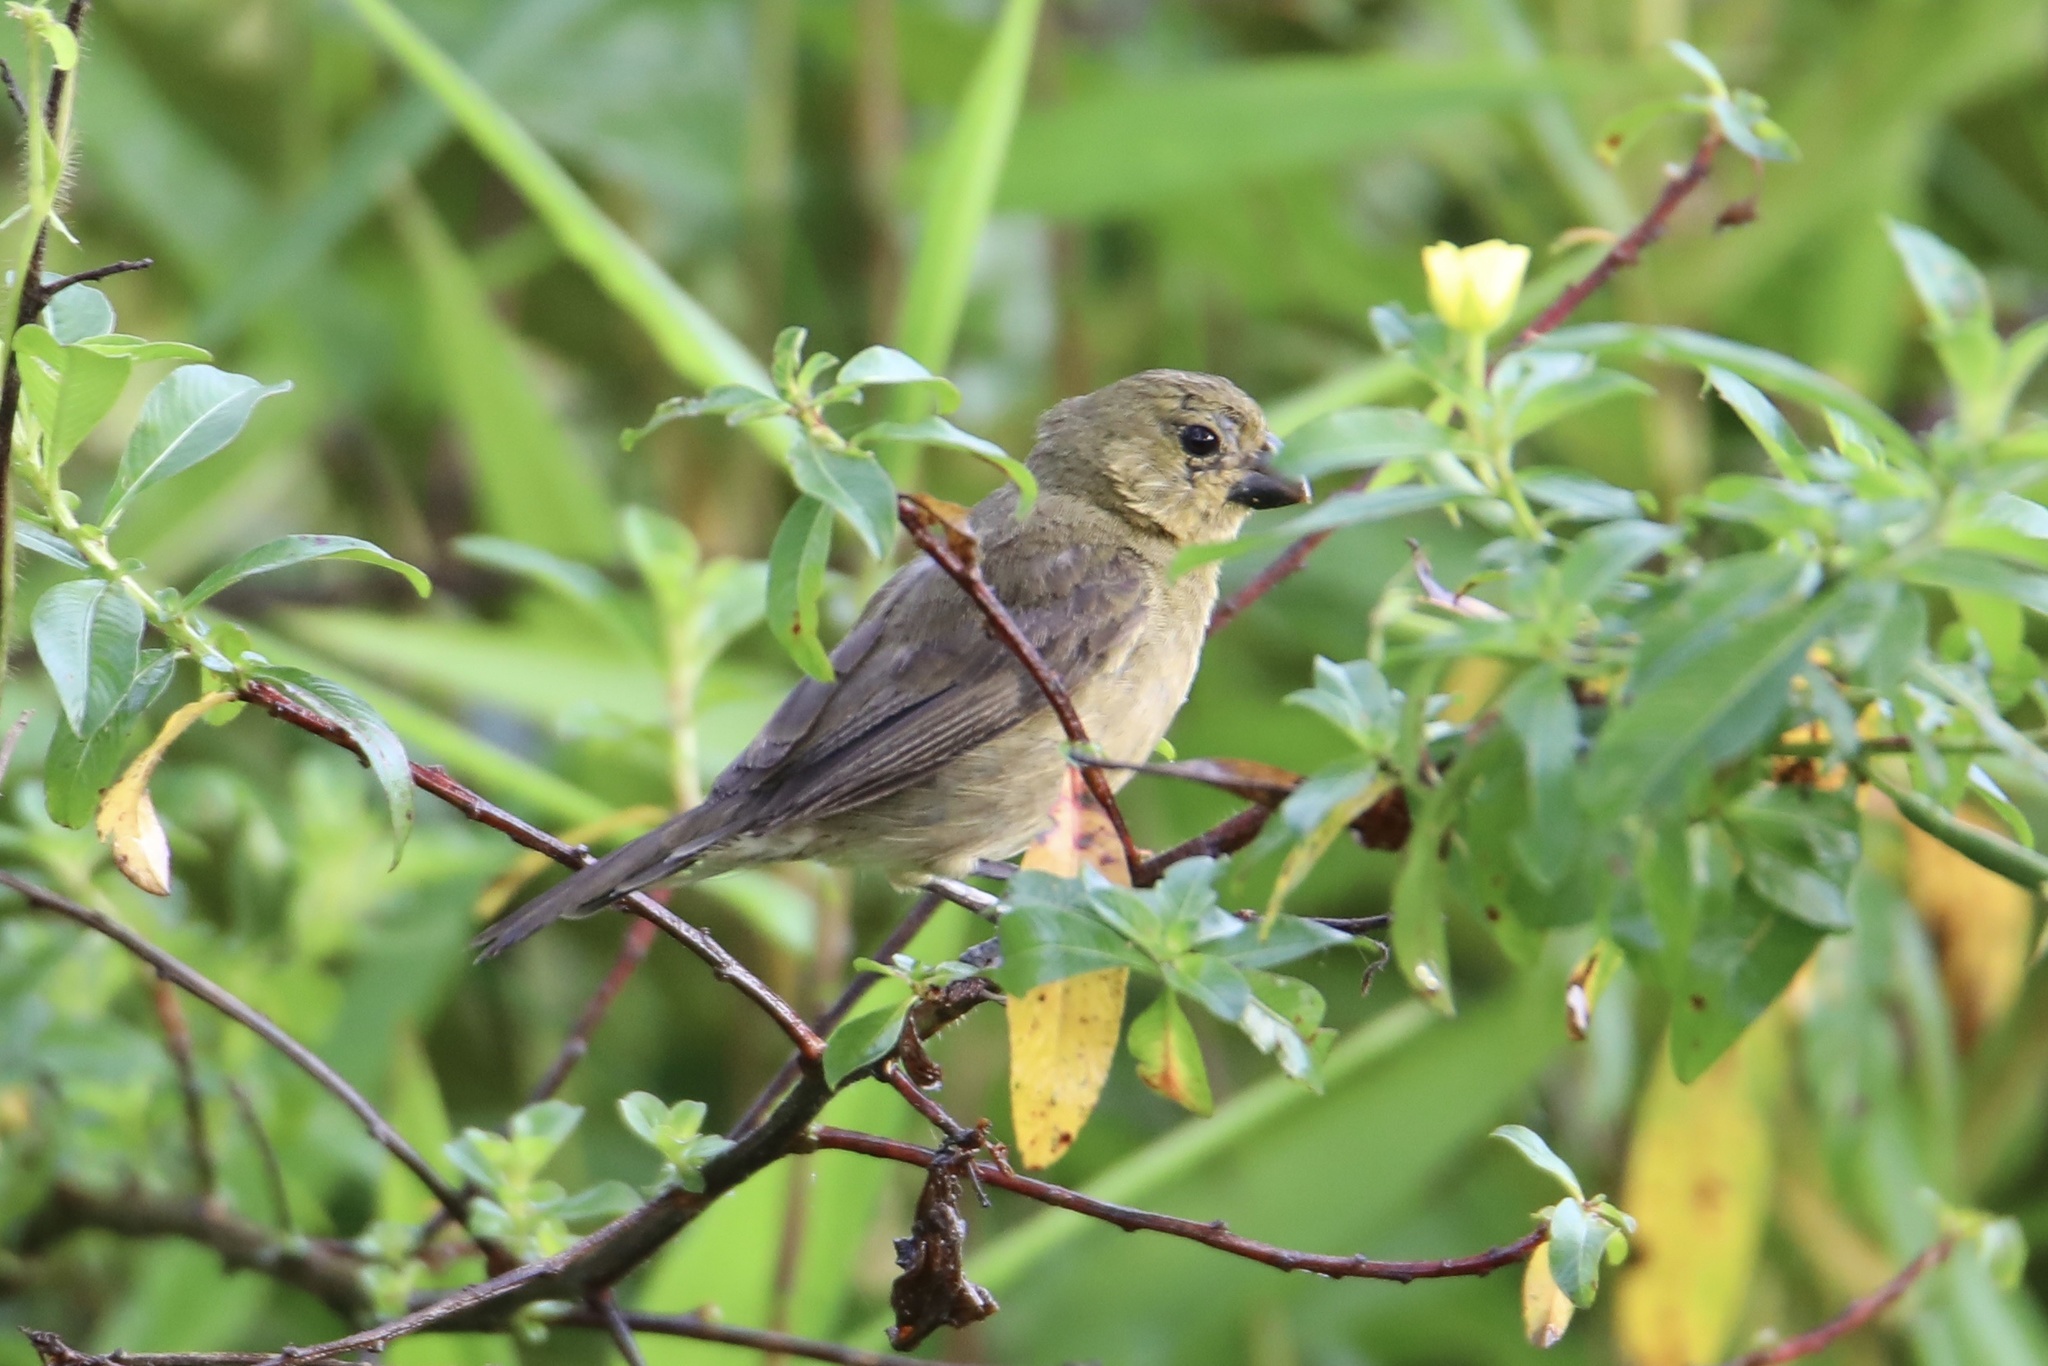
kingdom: Animalia
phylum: Chordata
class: Aves
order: Passeriformes
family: Thraupidae
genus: Sporophila
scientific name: Sporophila nigricollis
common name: Yellow-bellied seedeater
